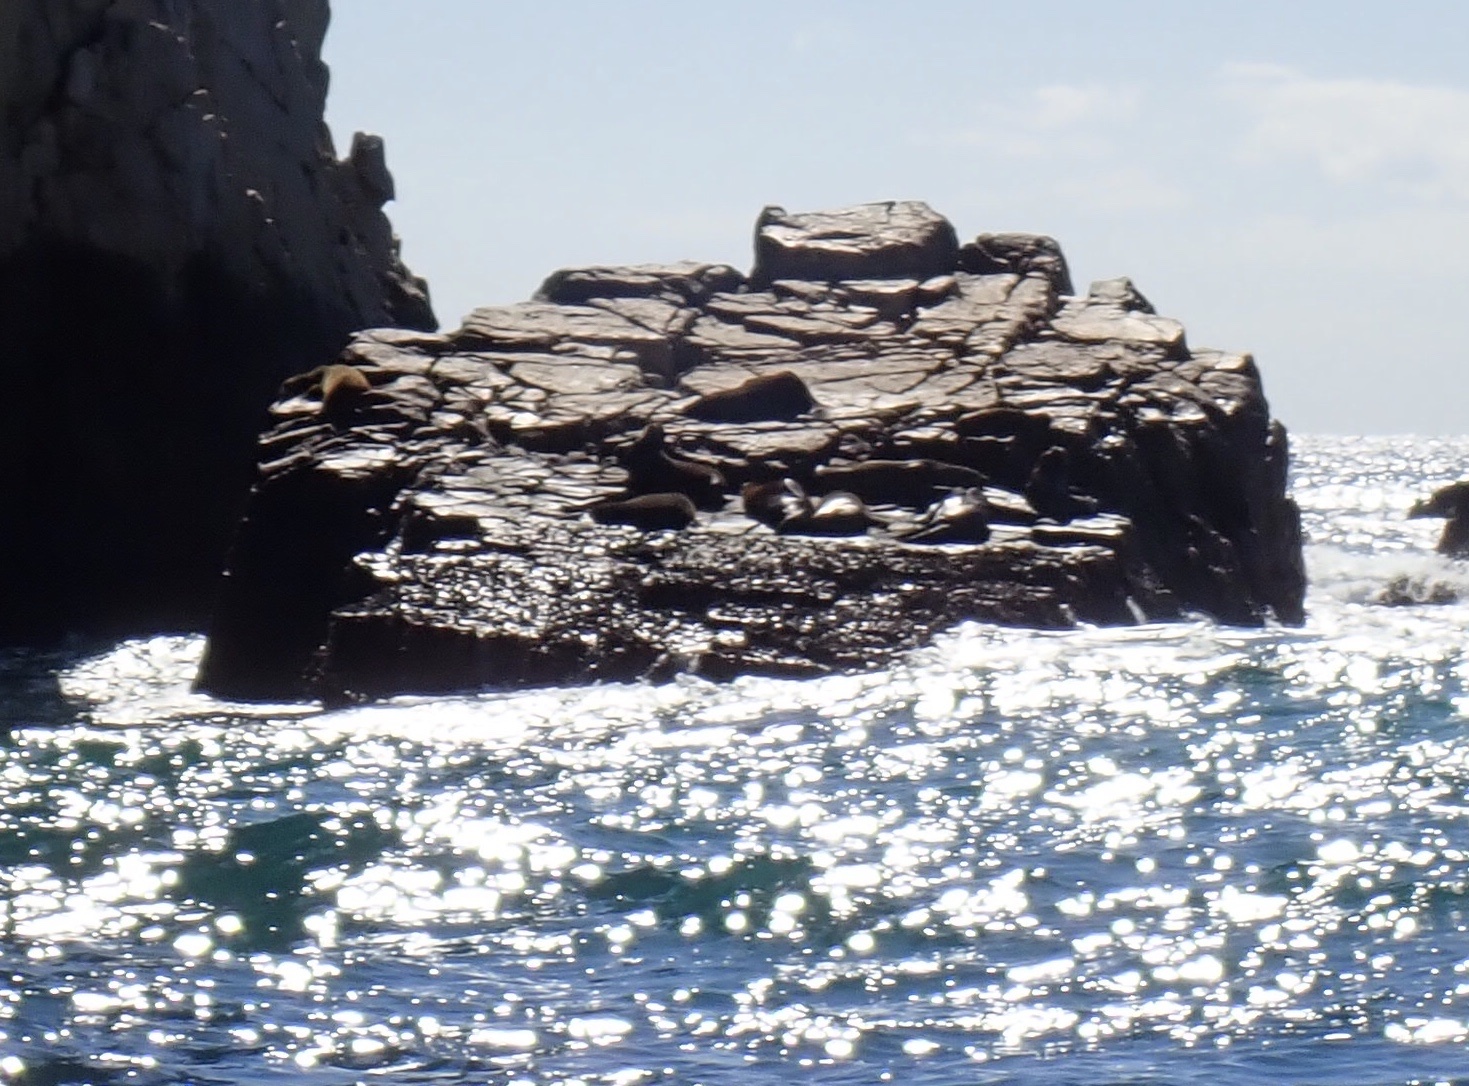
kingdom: Animalia
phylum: Chordata
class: Mammalia
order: Carnivora
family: Otariidae
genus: Zalophus
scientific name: Zalophus californianus
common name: California sea lion
